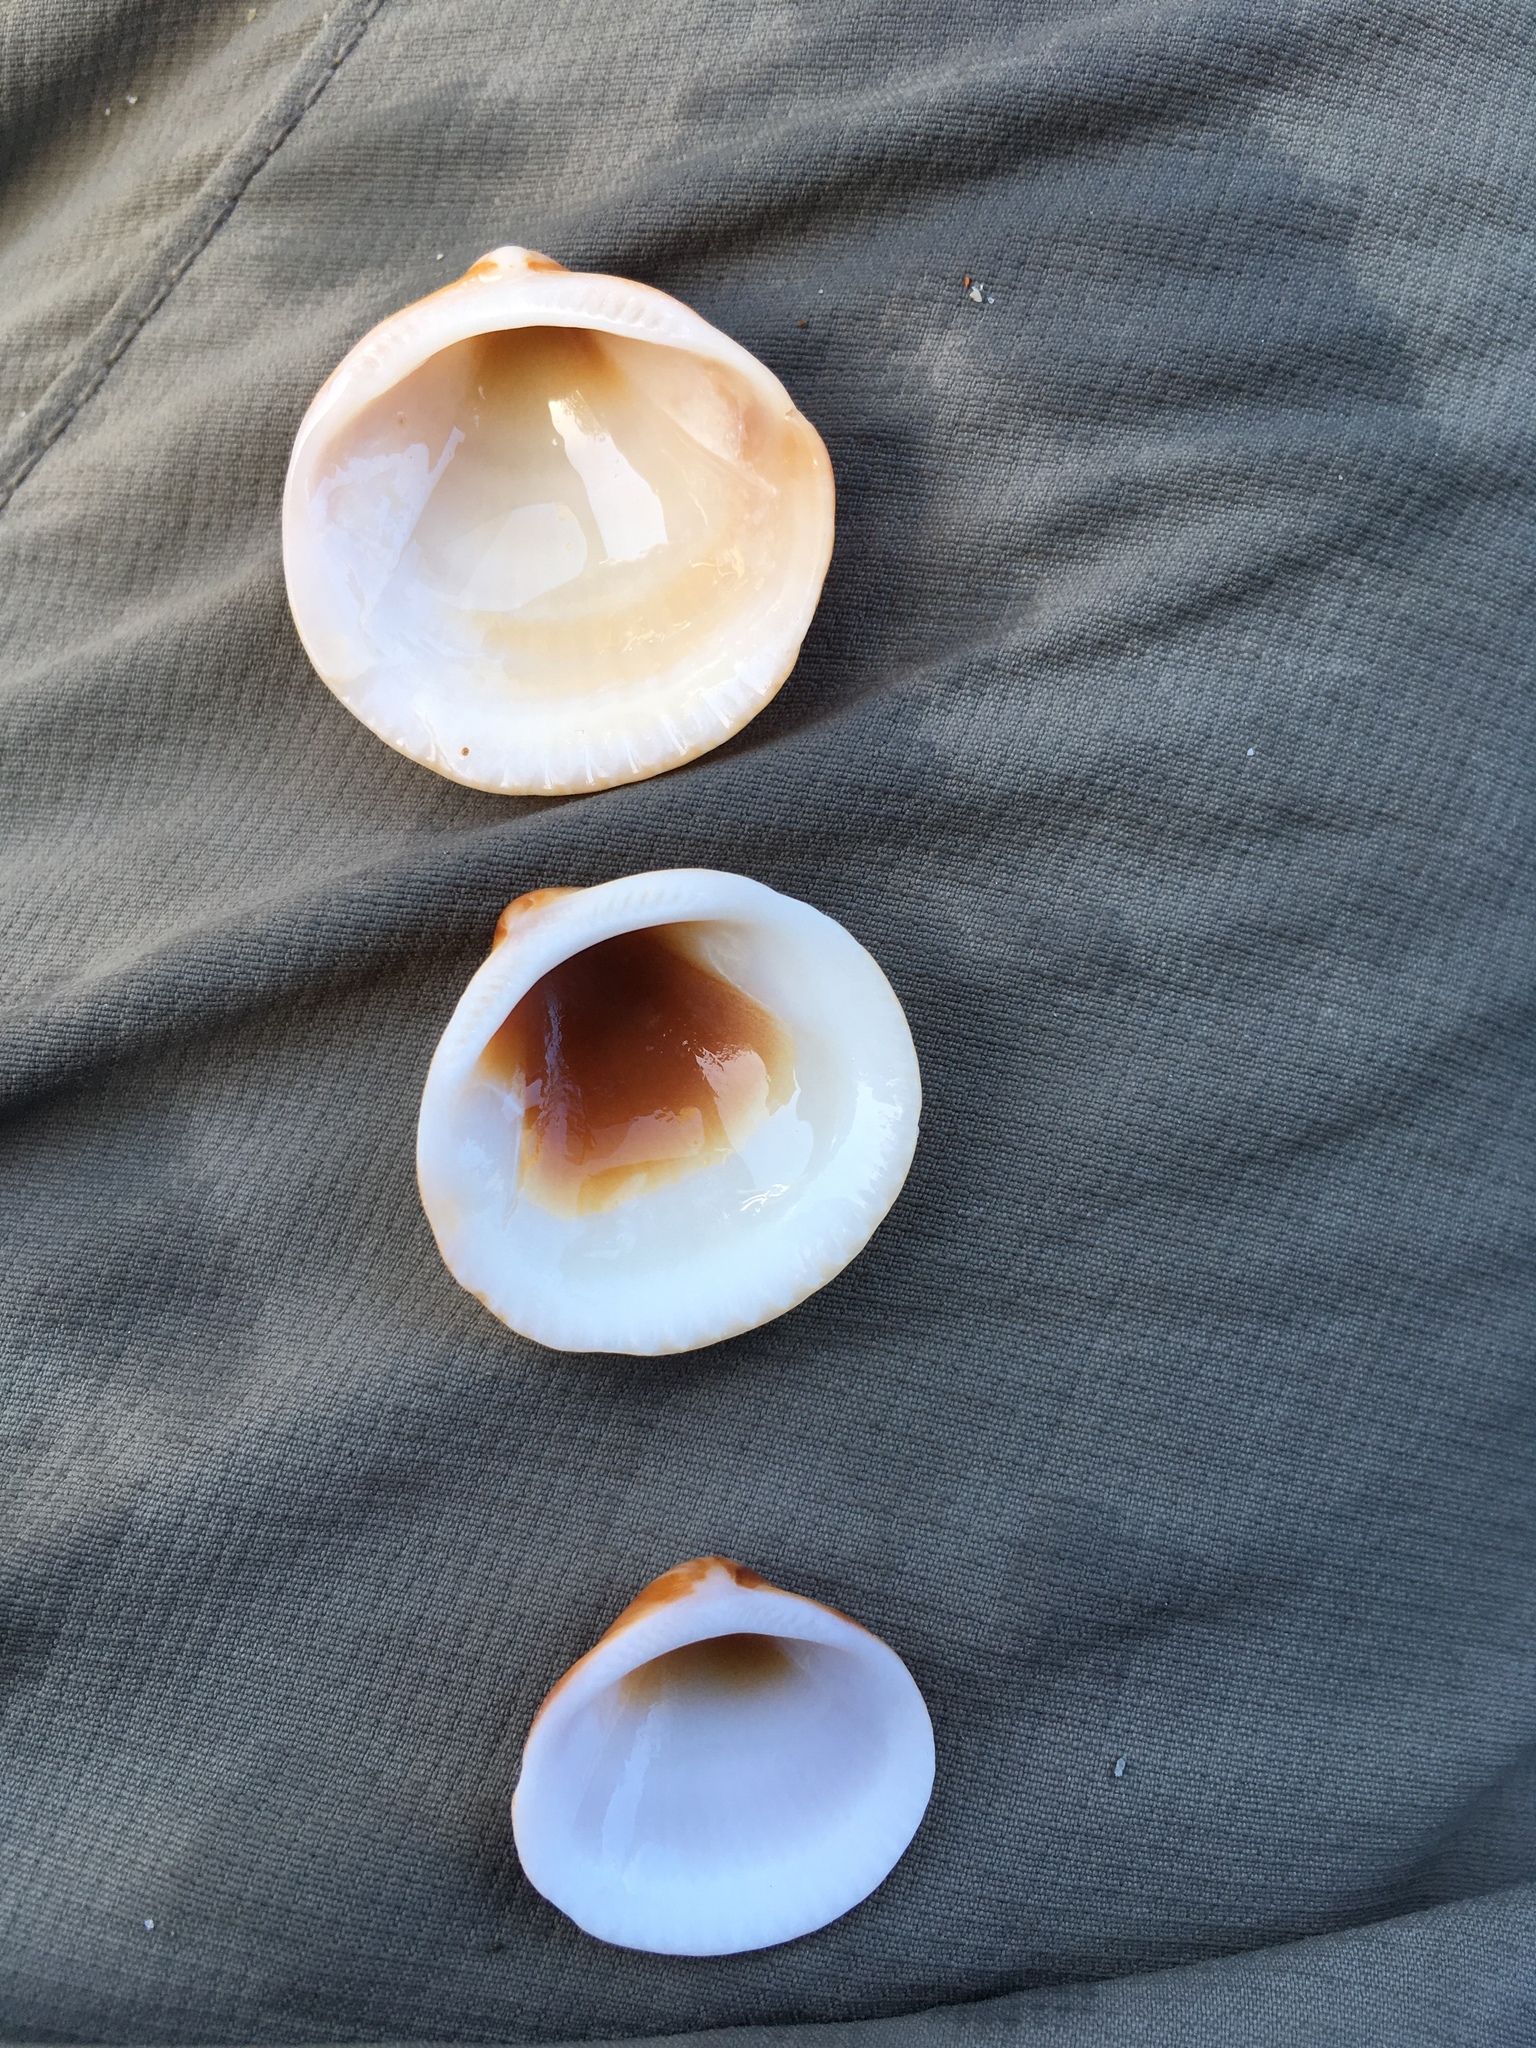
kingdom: Animalia
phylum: Mollusca
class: Bivalvia
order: Arcida
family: Glycymerididae
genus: Glycymeris
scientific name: Glycymeris spectralis
